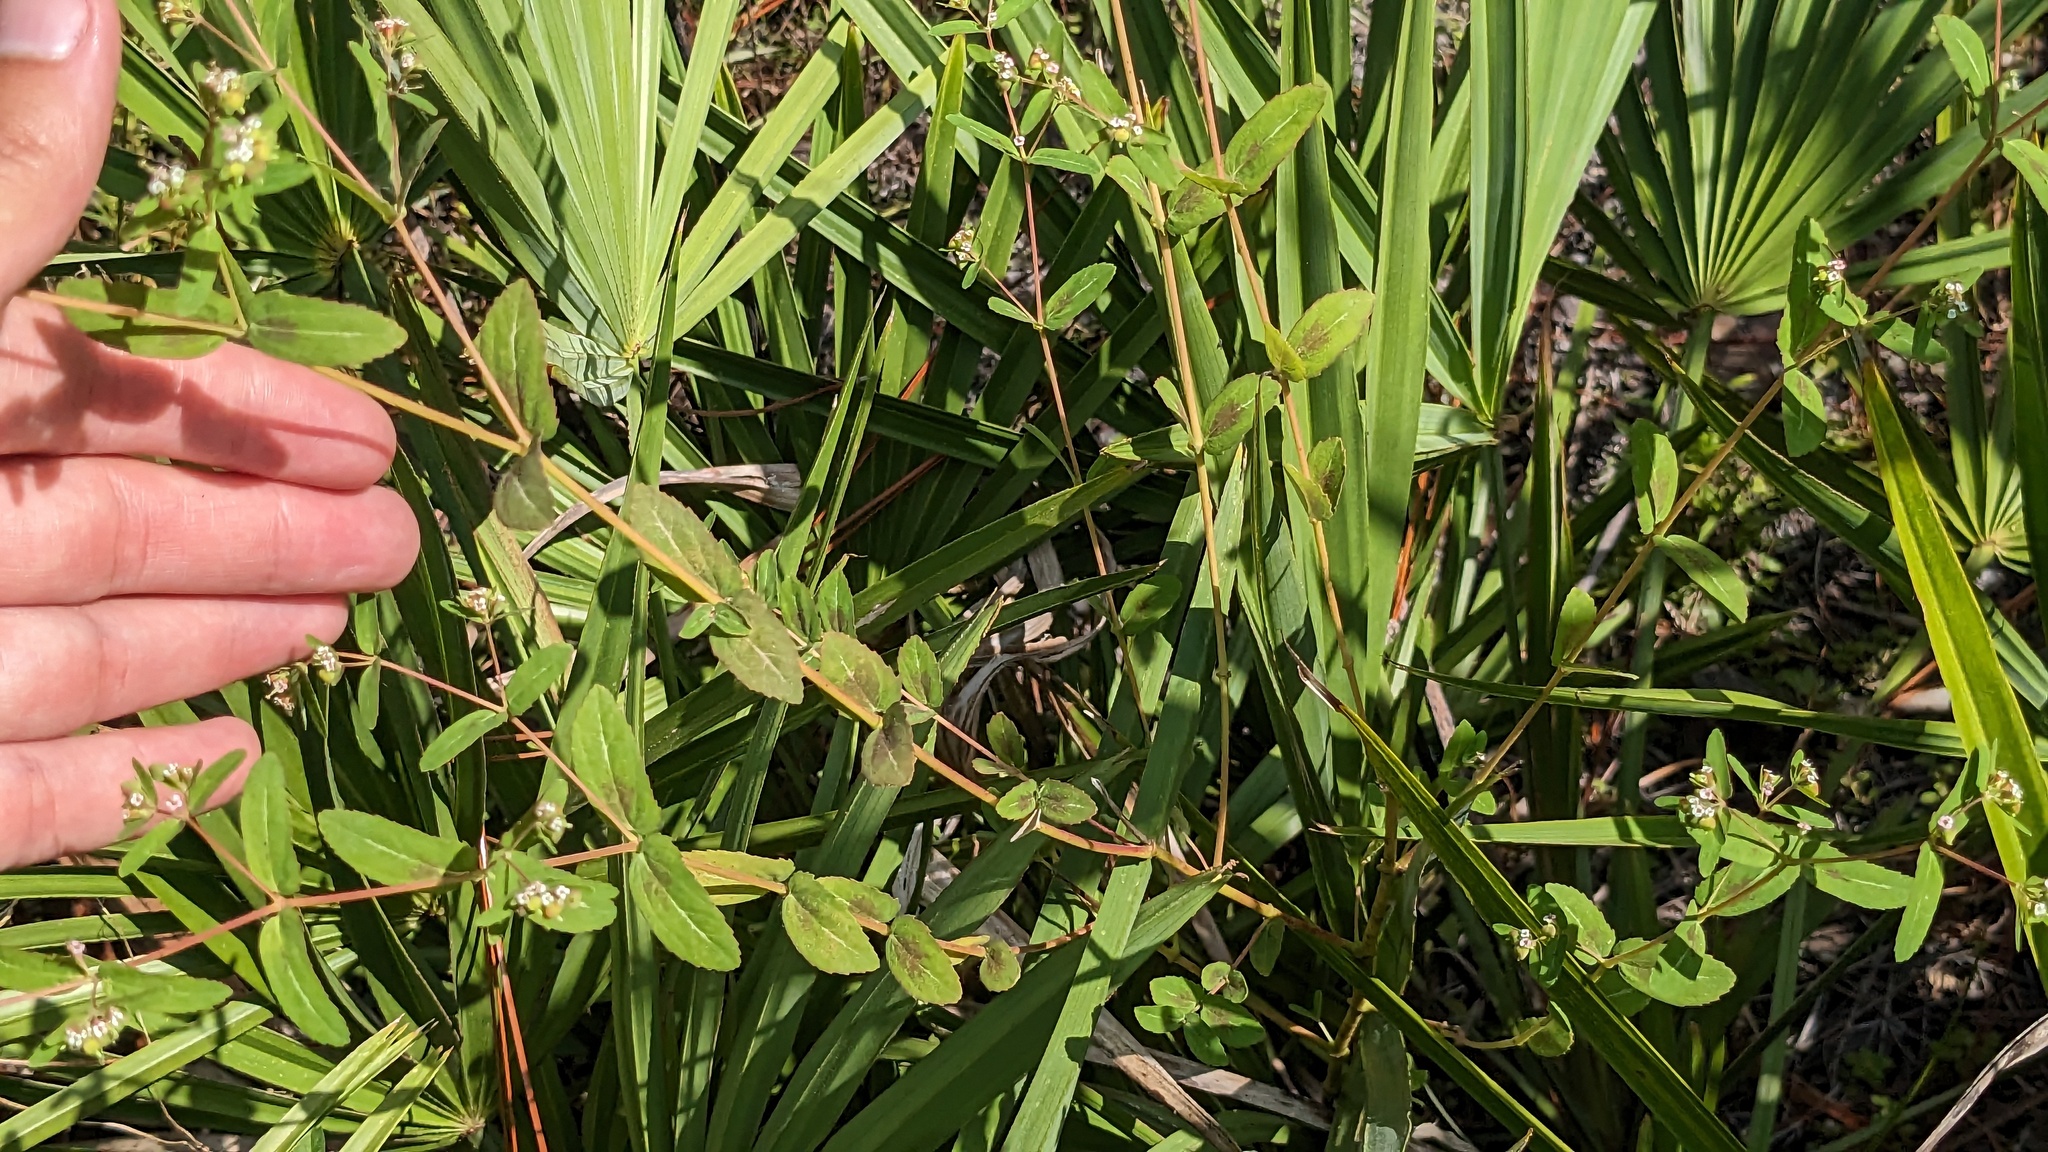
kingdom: Plantae
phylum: Tracheophyta
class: Magnoliopsida
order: Malpighiales
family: Euphorbiaceae
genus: Euphorbia
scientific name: Euphorbia nutans
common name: Eyebane
